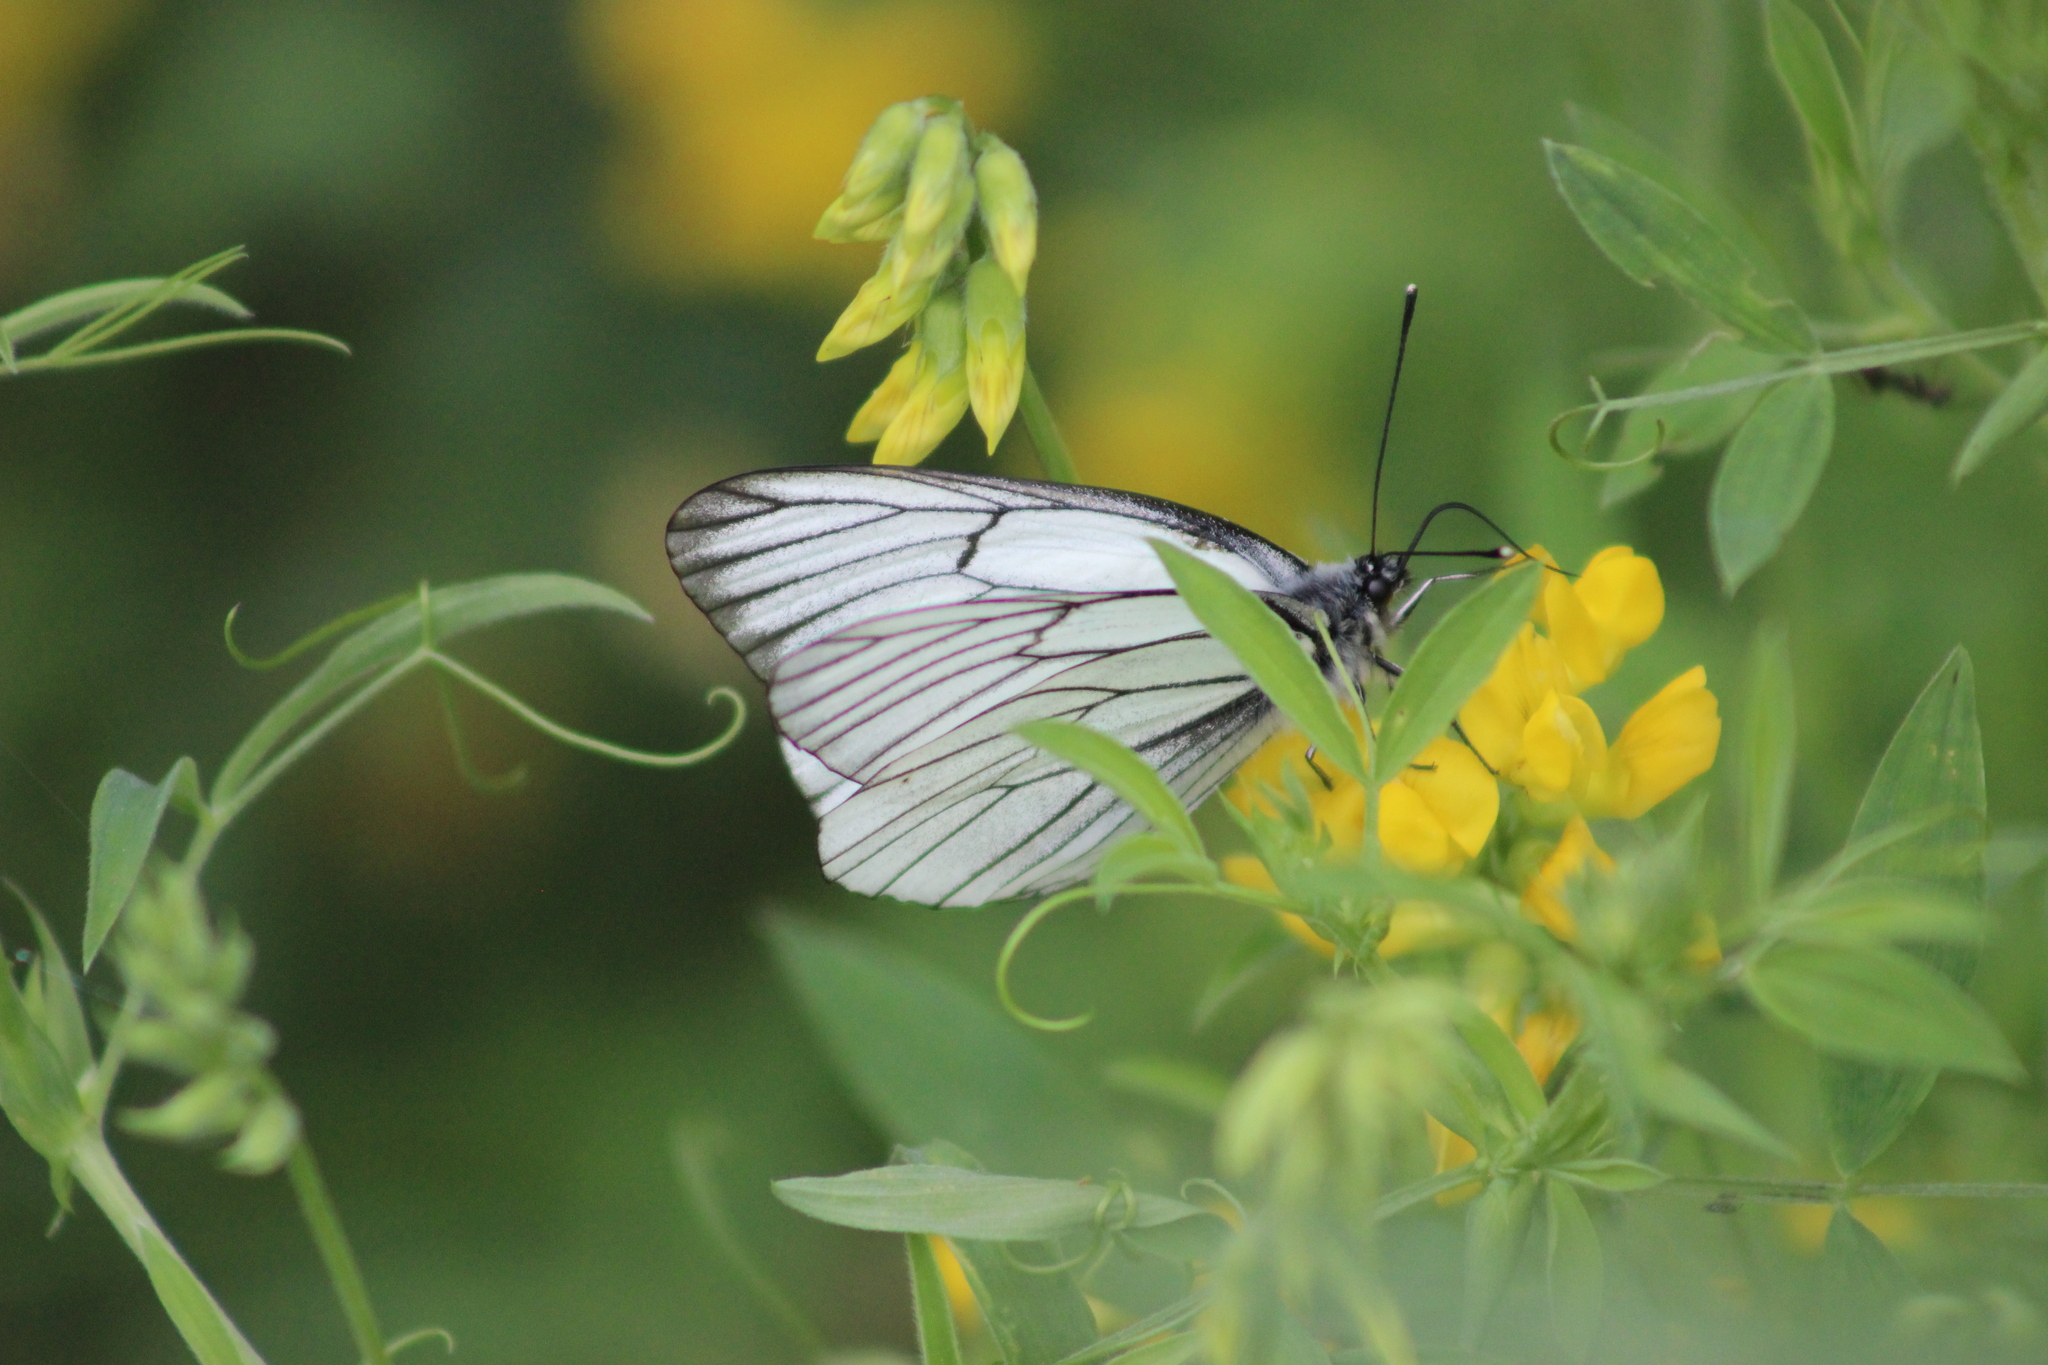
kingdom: Animalia
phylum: Arthropoda
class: Insecta
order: Lepidoptera
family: Pieridae
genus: Aporia
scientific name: Aporia crataegi
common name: Black-veined white
